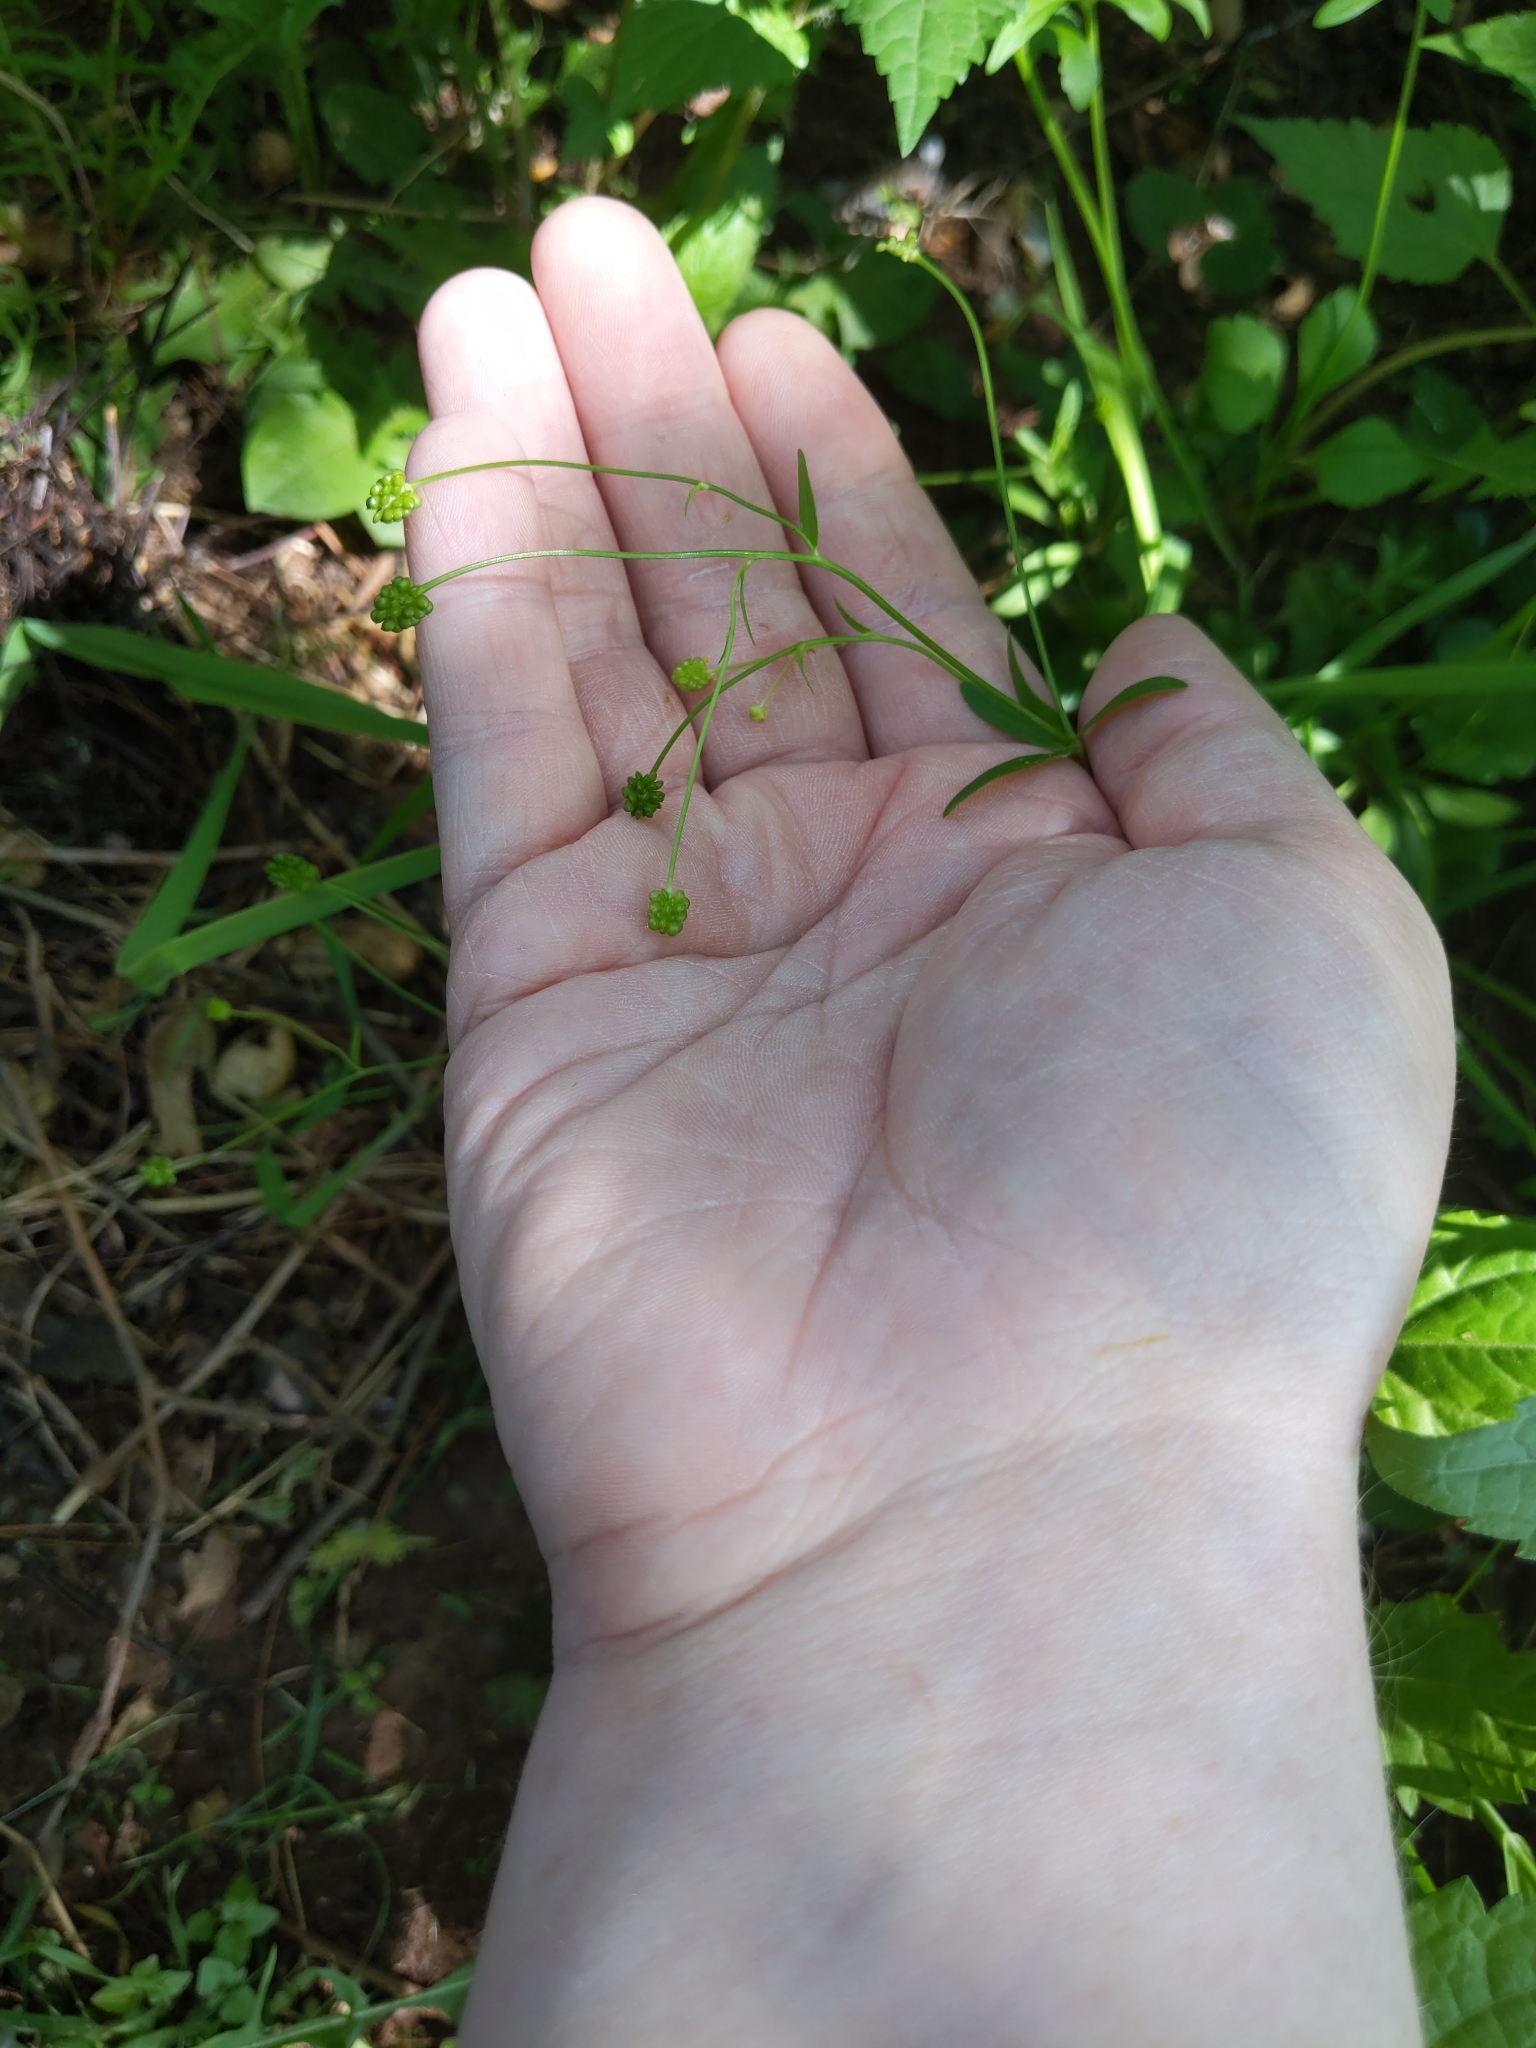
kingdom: Plantae
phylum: Tracheophyta
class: Magnoliopsida
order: Ranunculales
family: Ranunculaceae
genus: Ranunculus
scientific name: Ranunculus abortivus
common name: Early wood buttercup
